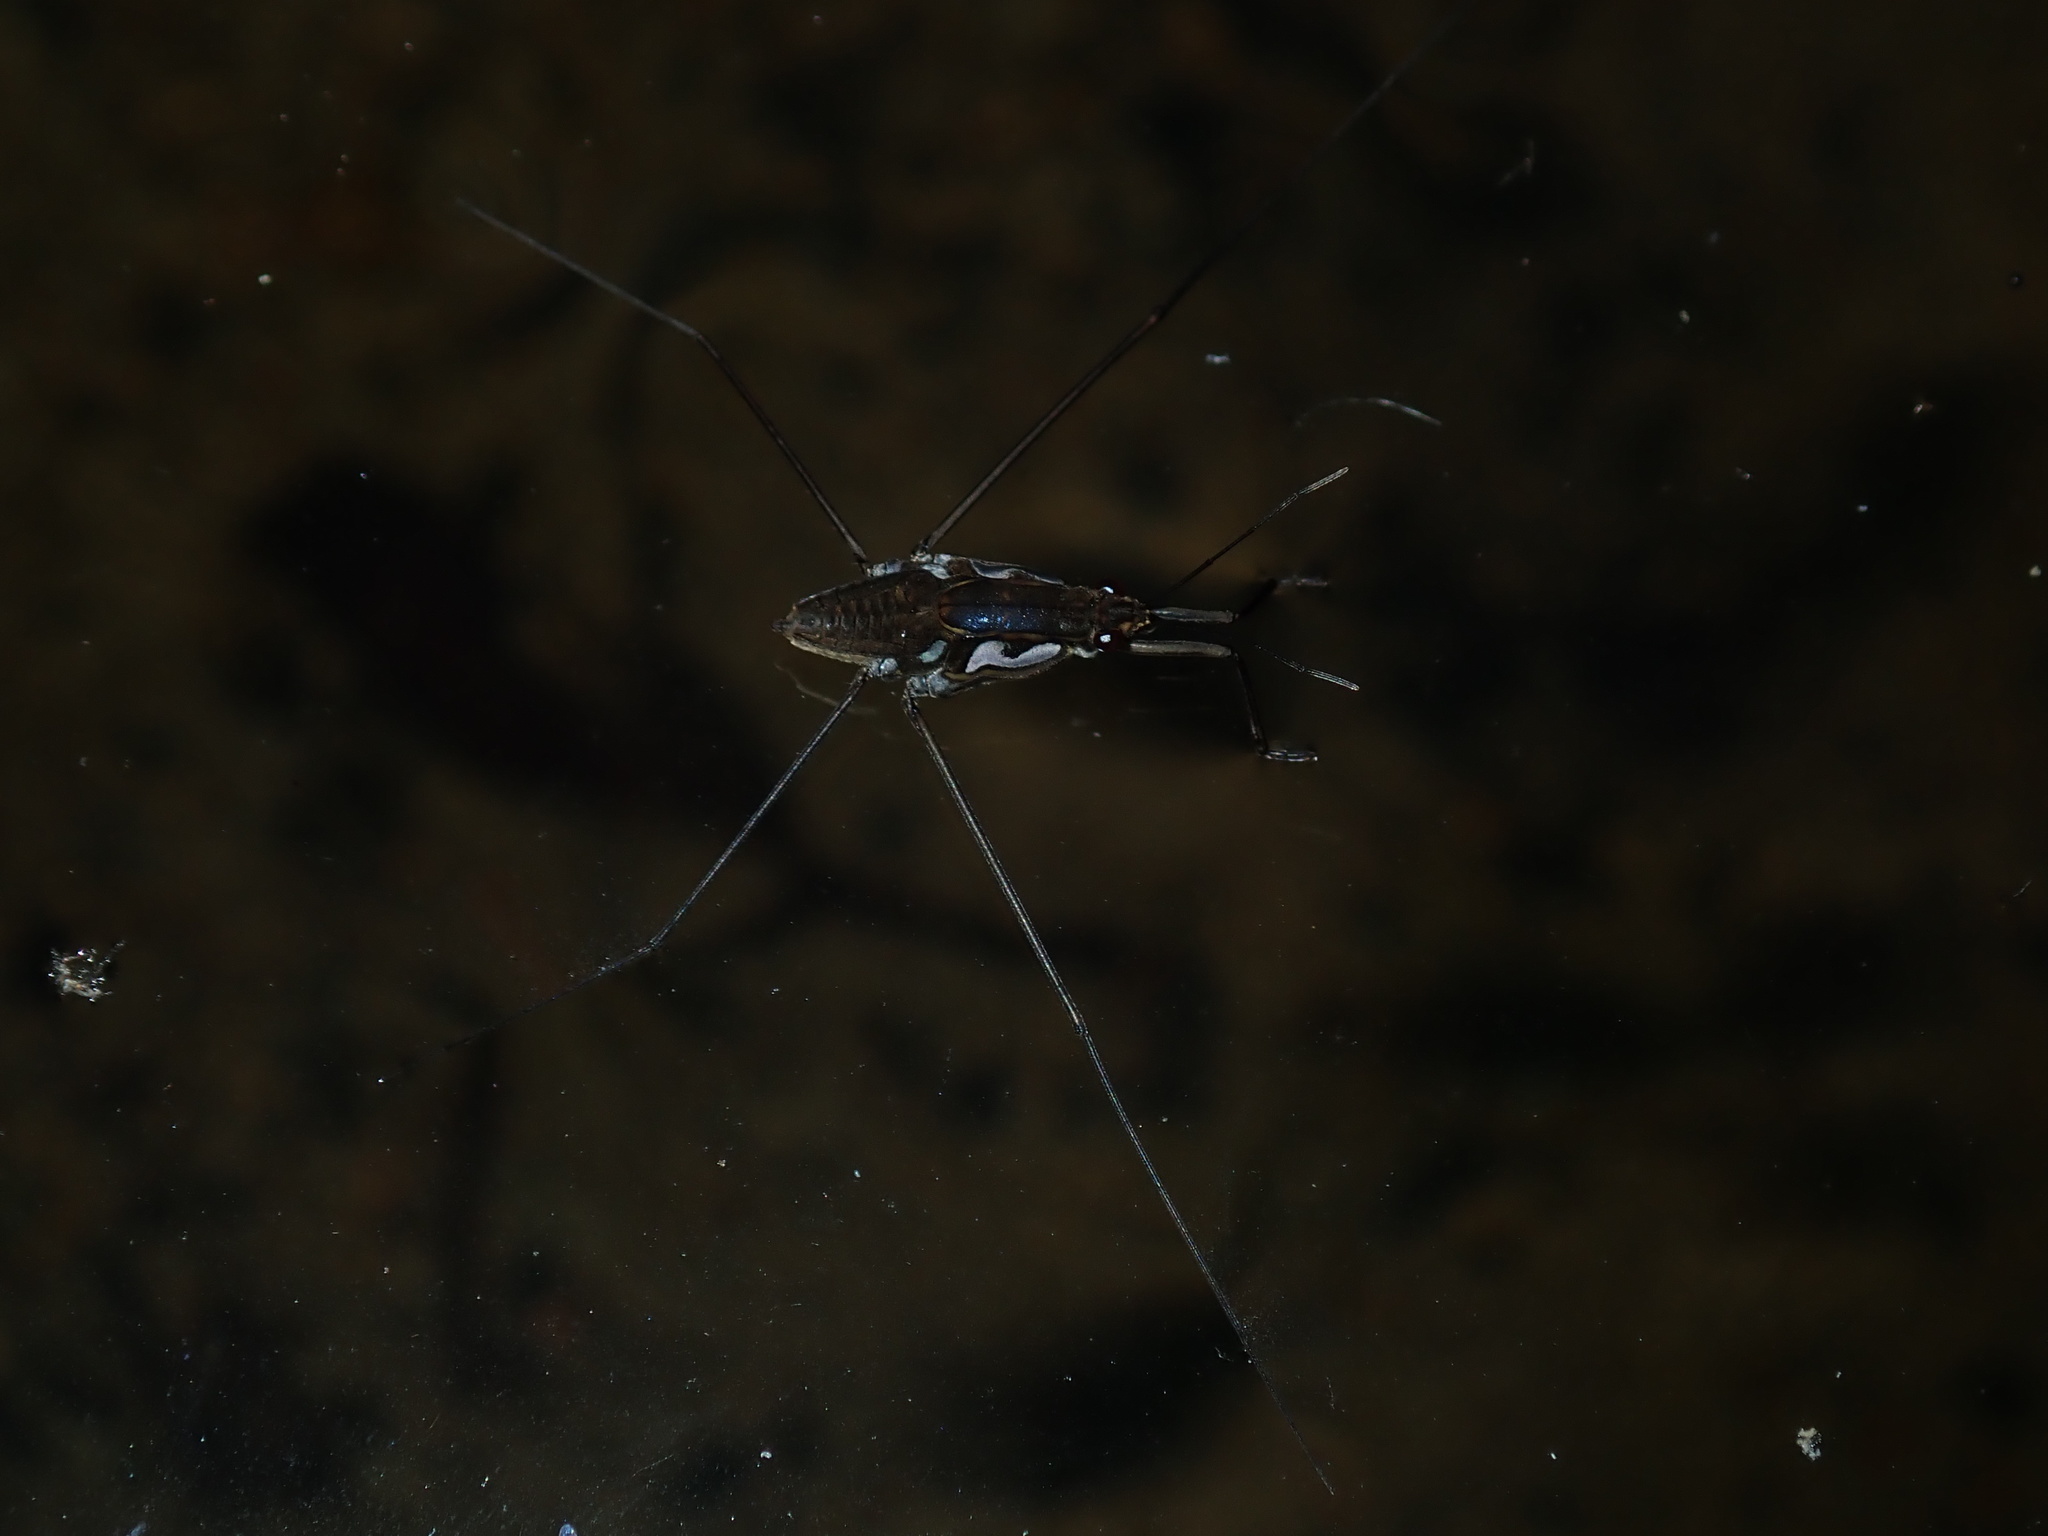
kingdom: Animalia
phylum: Arthropoda
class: Insecta
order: Hemiptera
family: Gerridae
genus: Tenagogerris
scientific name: Tenagogerris euphrosyne
